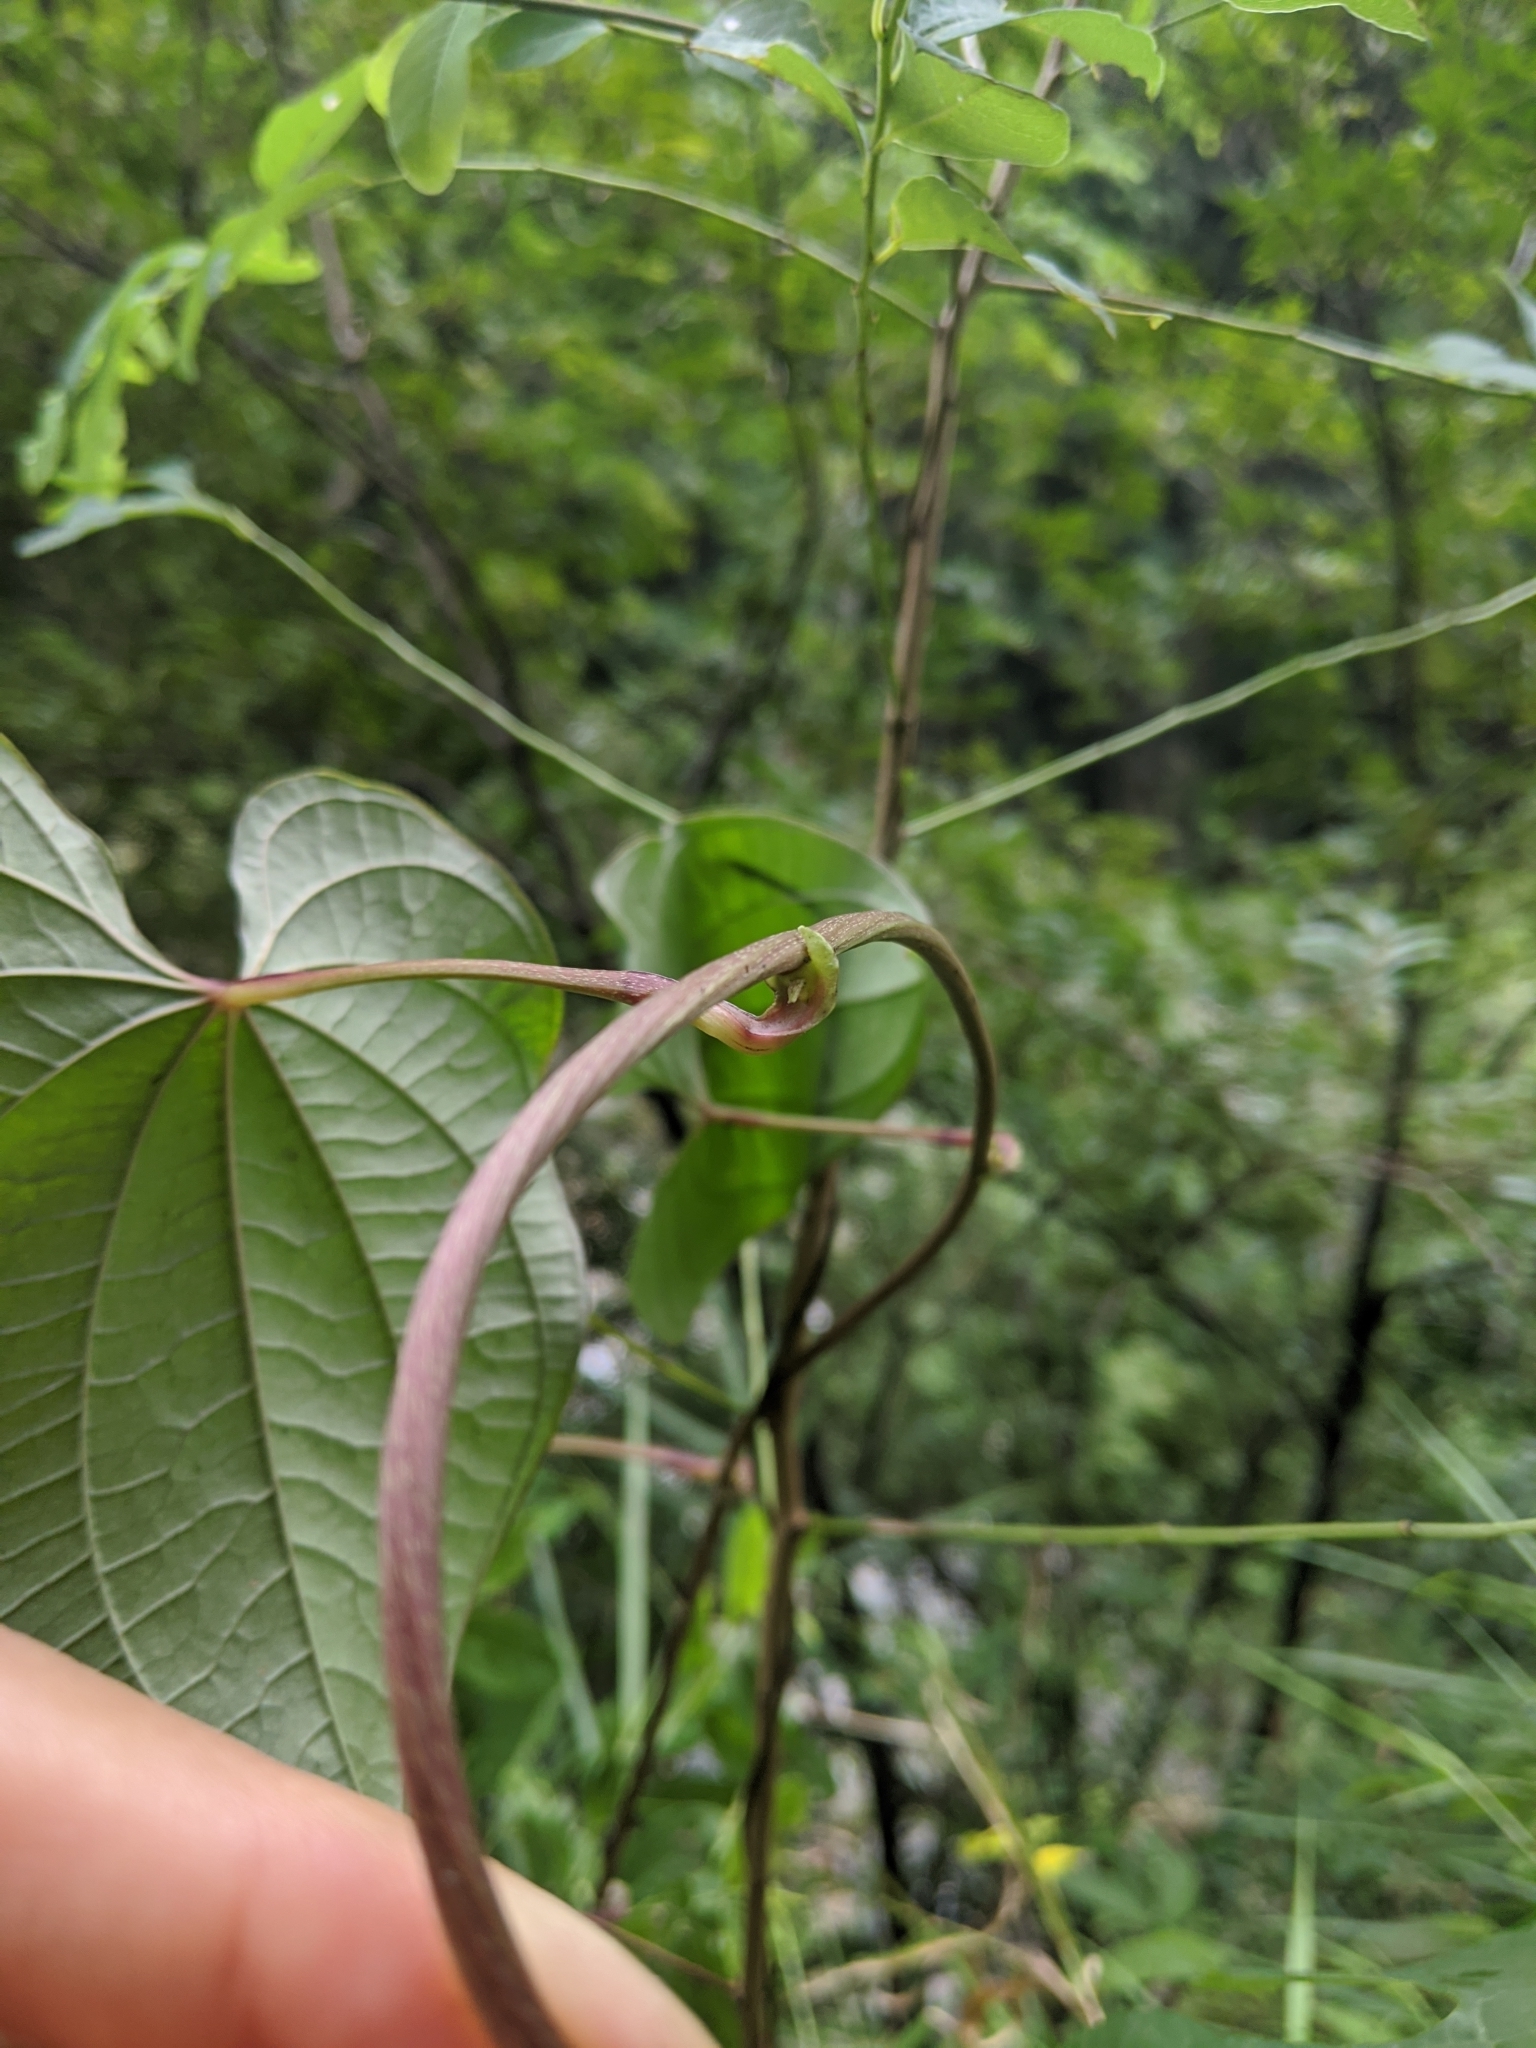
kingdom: Plantae
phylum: Tracheophyta
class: Liliopsida
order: Dioscoreales
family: Dioscoreaceae
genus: Dioscorea
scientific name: Dioscorea bulbifera
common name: Air yam
